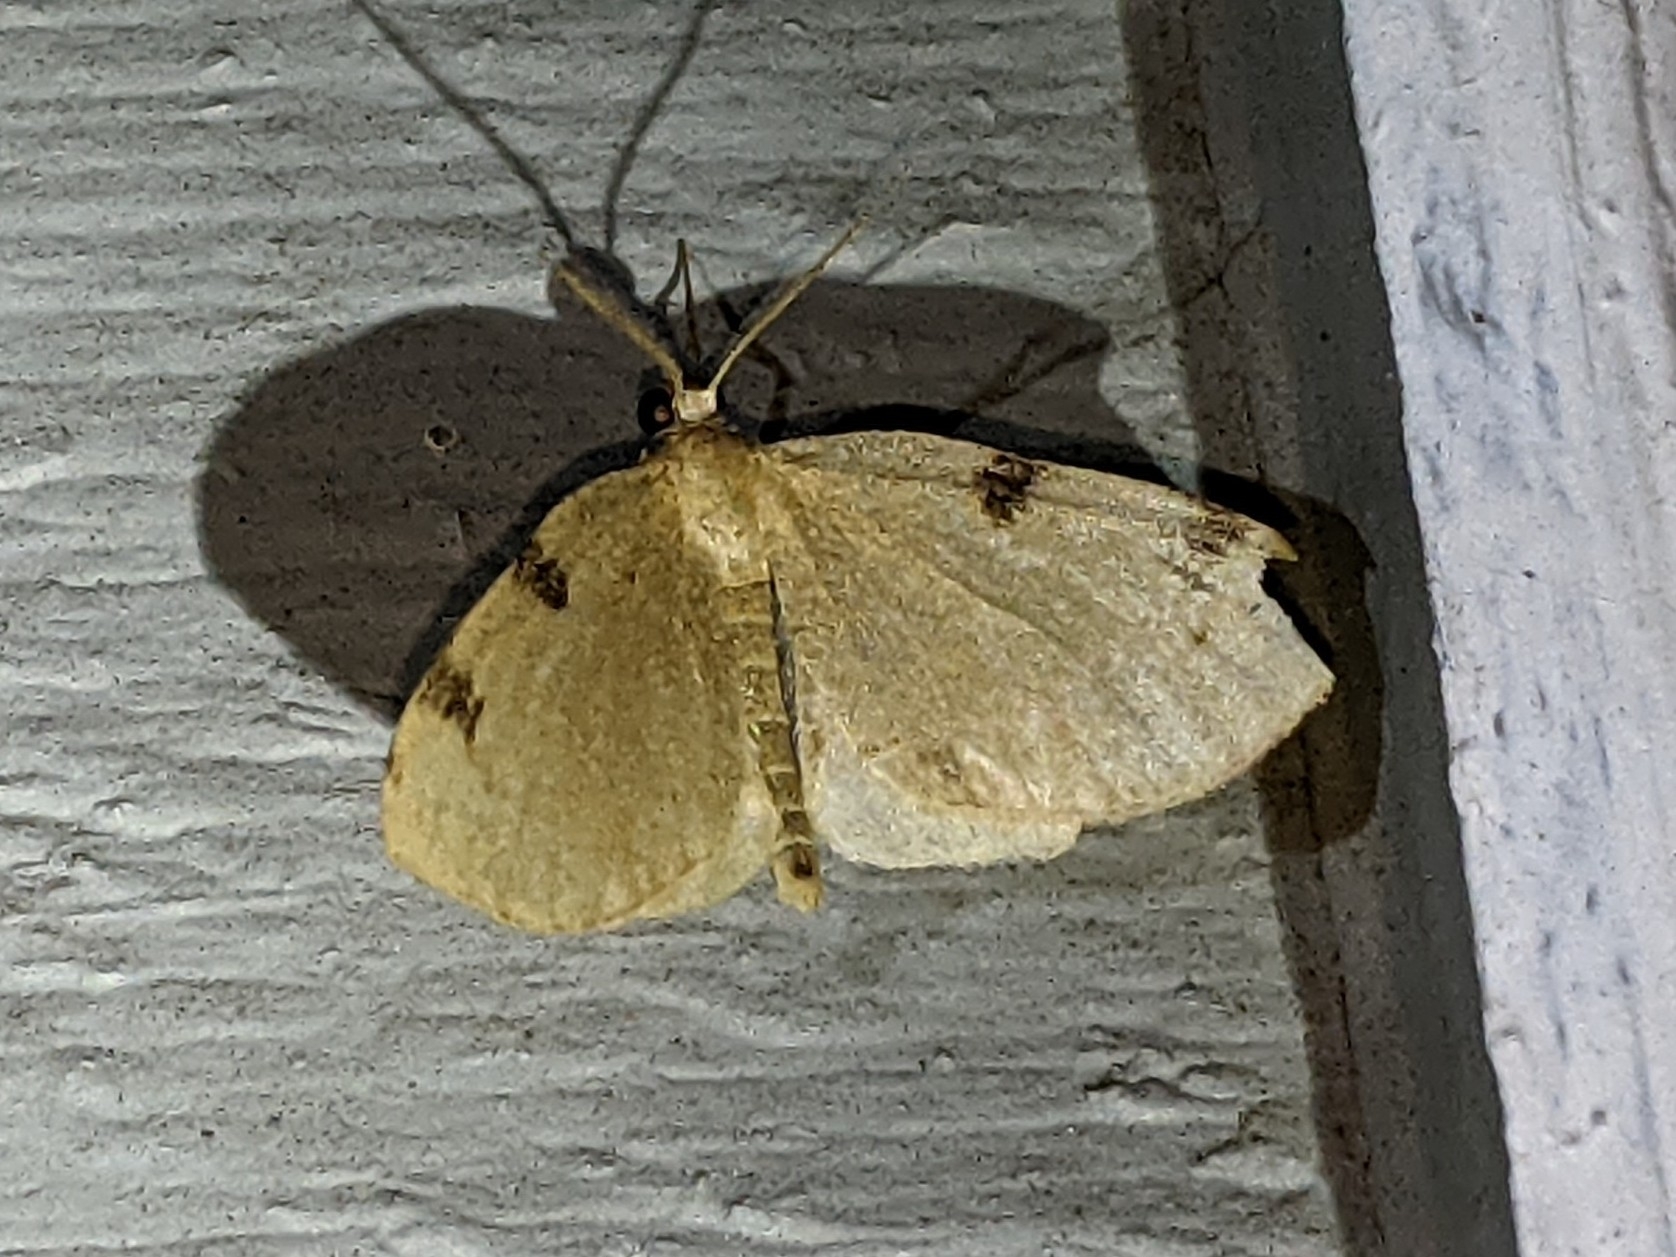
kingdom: Animalia
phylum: Arthropoda
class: Insecta
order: Lepidoptera
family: Geometridae
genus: Heterophleps
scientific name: Heterophleps triguttaria
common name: Three-spotted fillip
